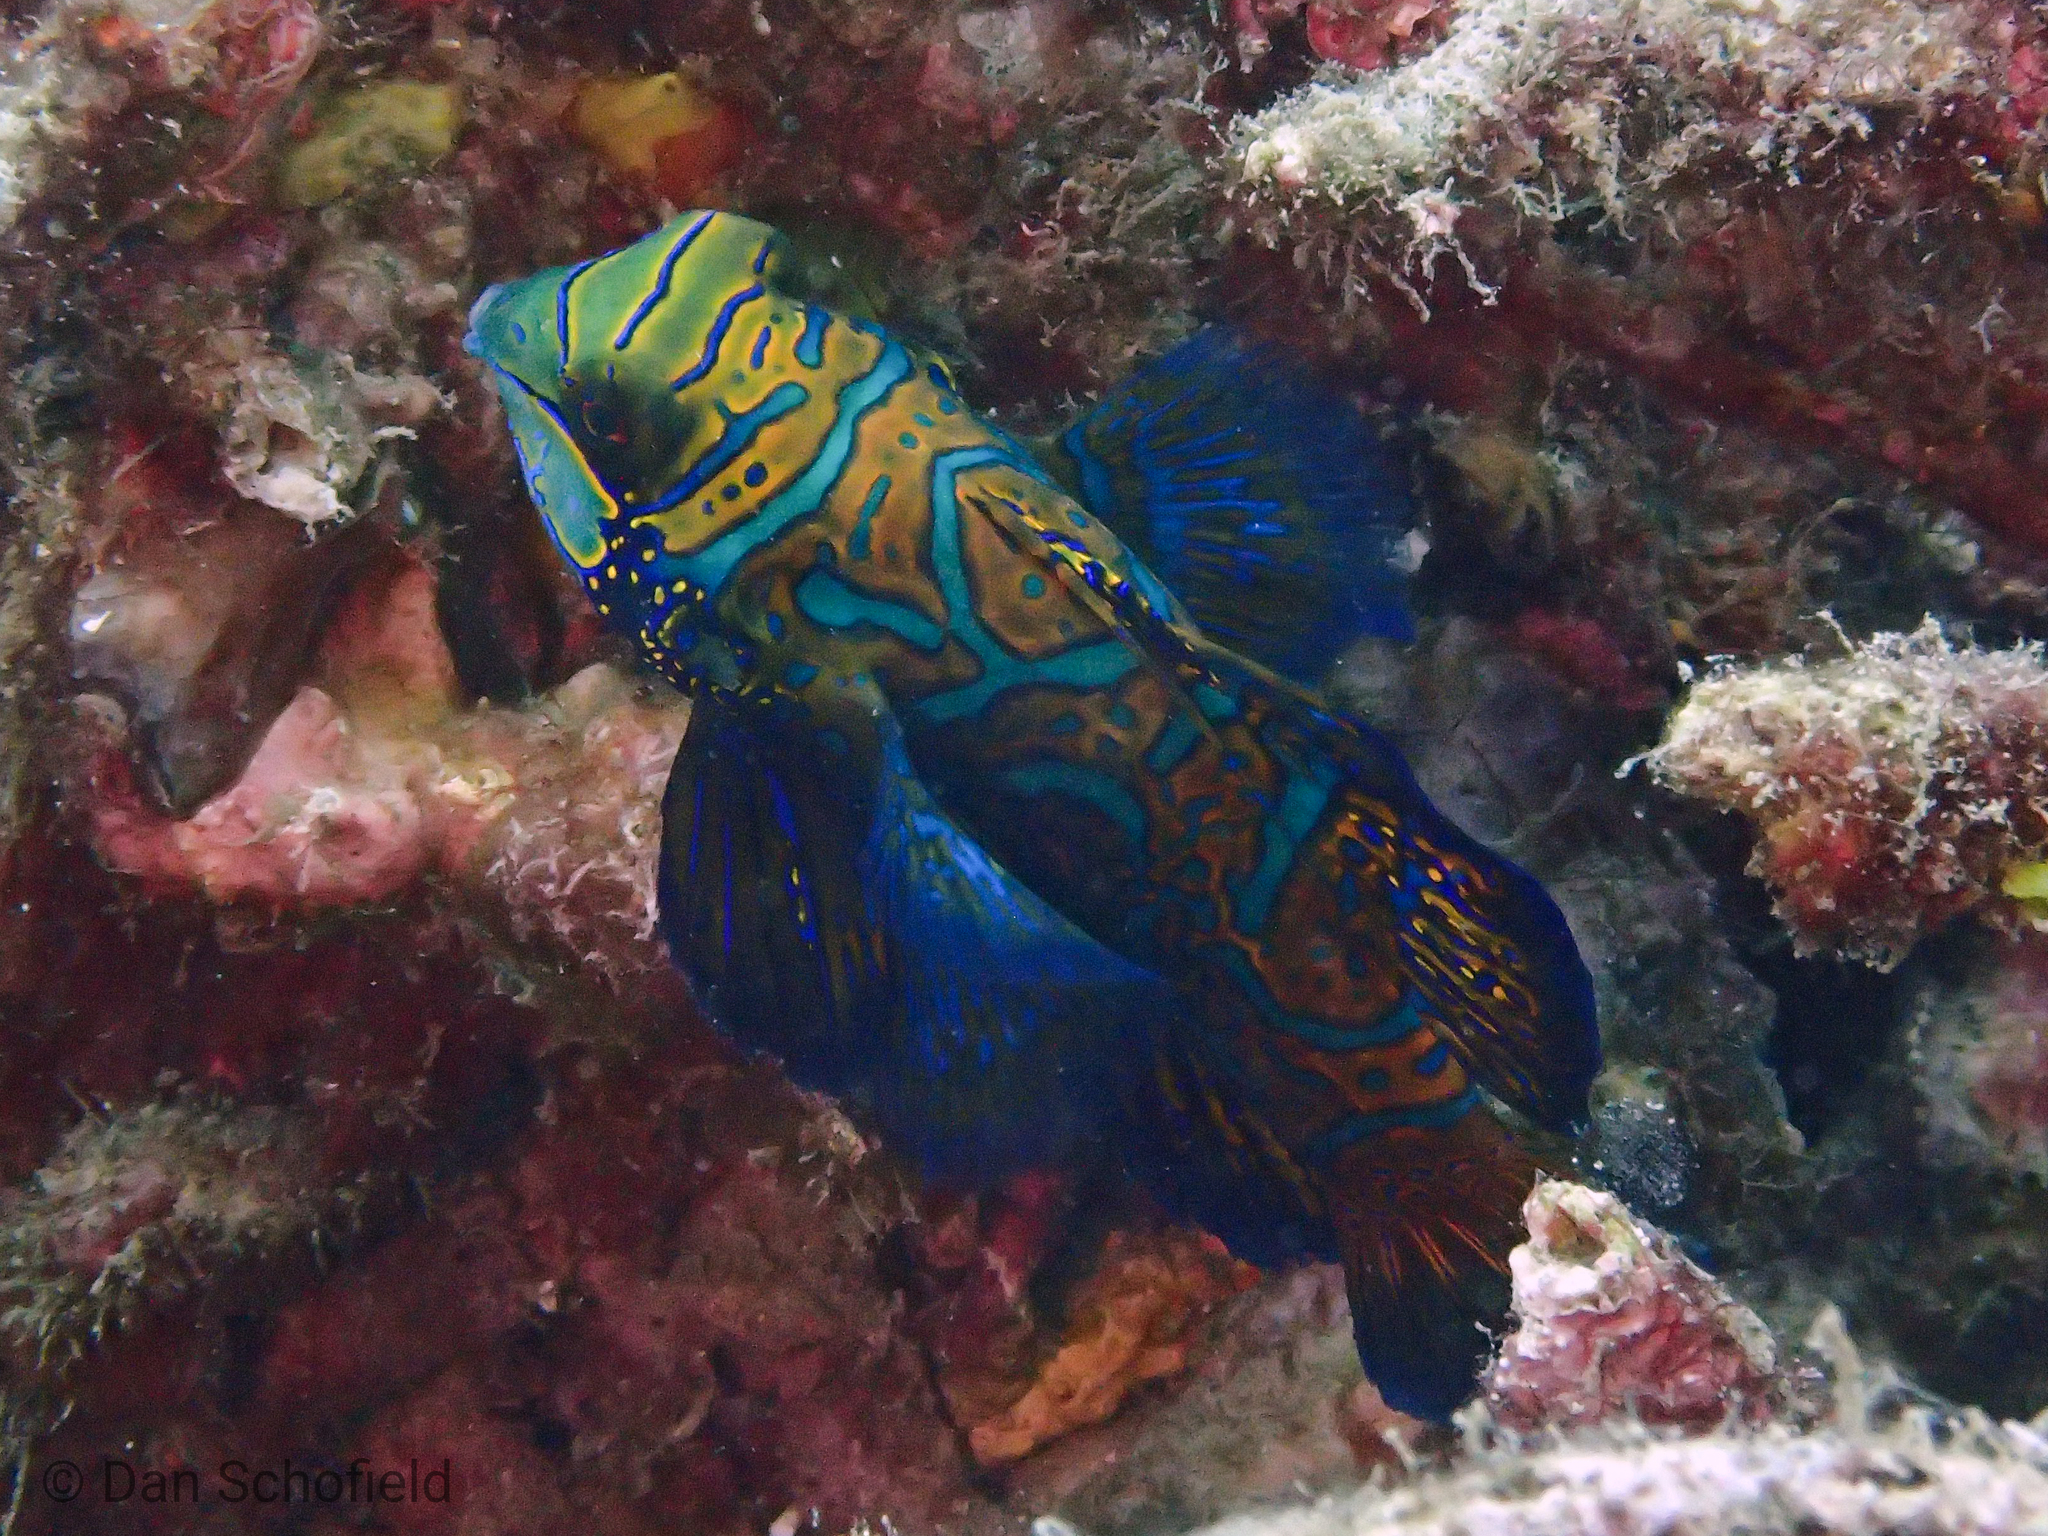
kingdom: Animalia
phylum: Chordata
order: Perciformes
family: Callionymidae
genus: Synchiropus
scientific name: Synchiropus splendidus
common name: Mandarinfish
